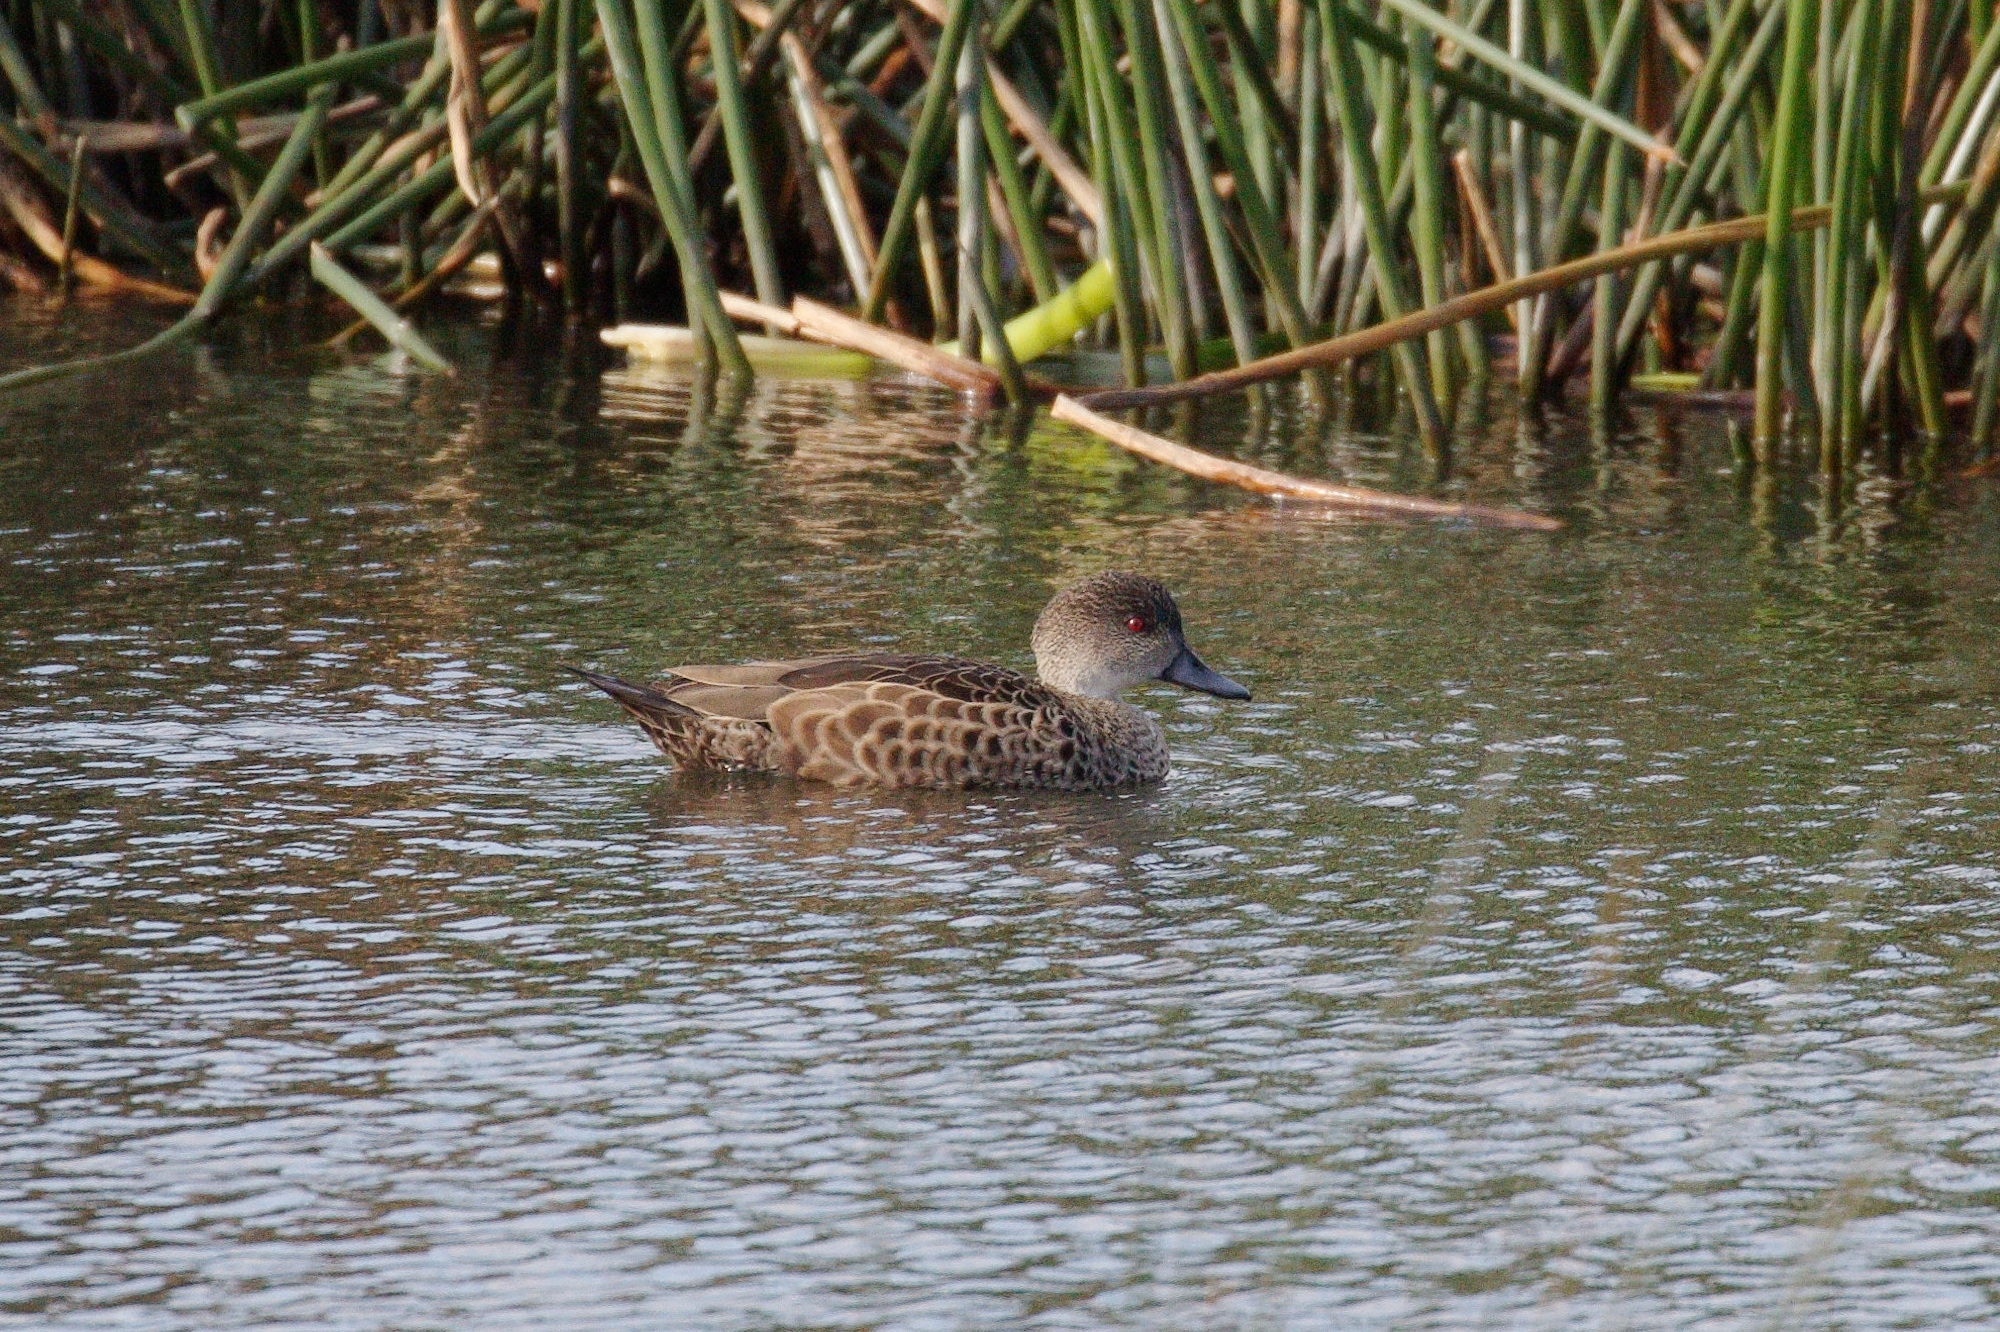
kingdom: Animalia
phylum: Chordata
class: Aves
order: Anseriformes
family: Anatidae
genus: Anas
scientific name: Anas gracilis
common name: Grey teal
